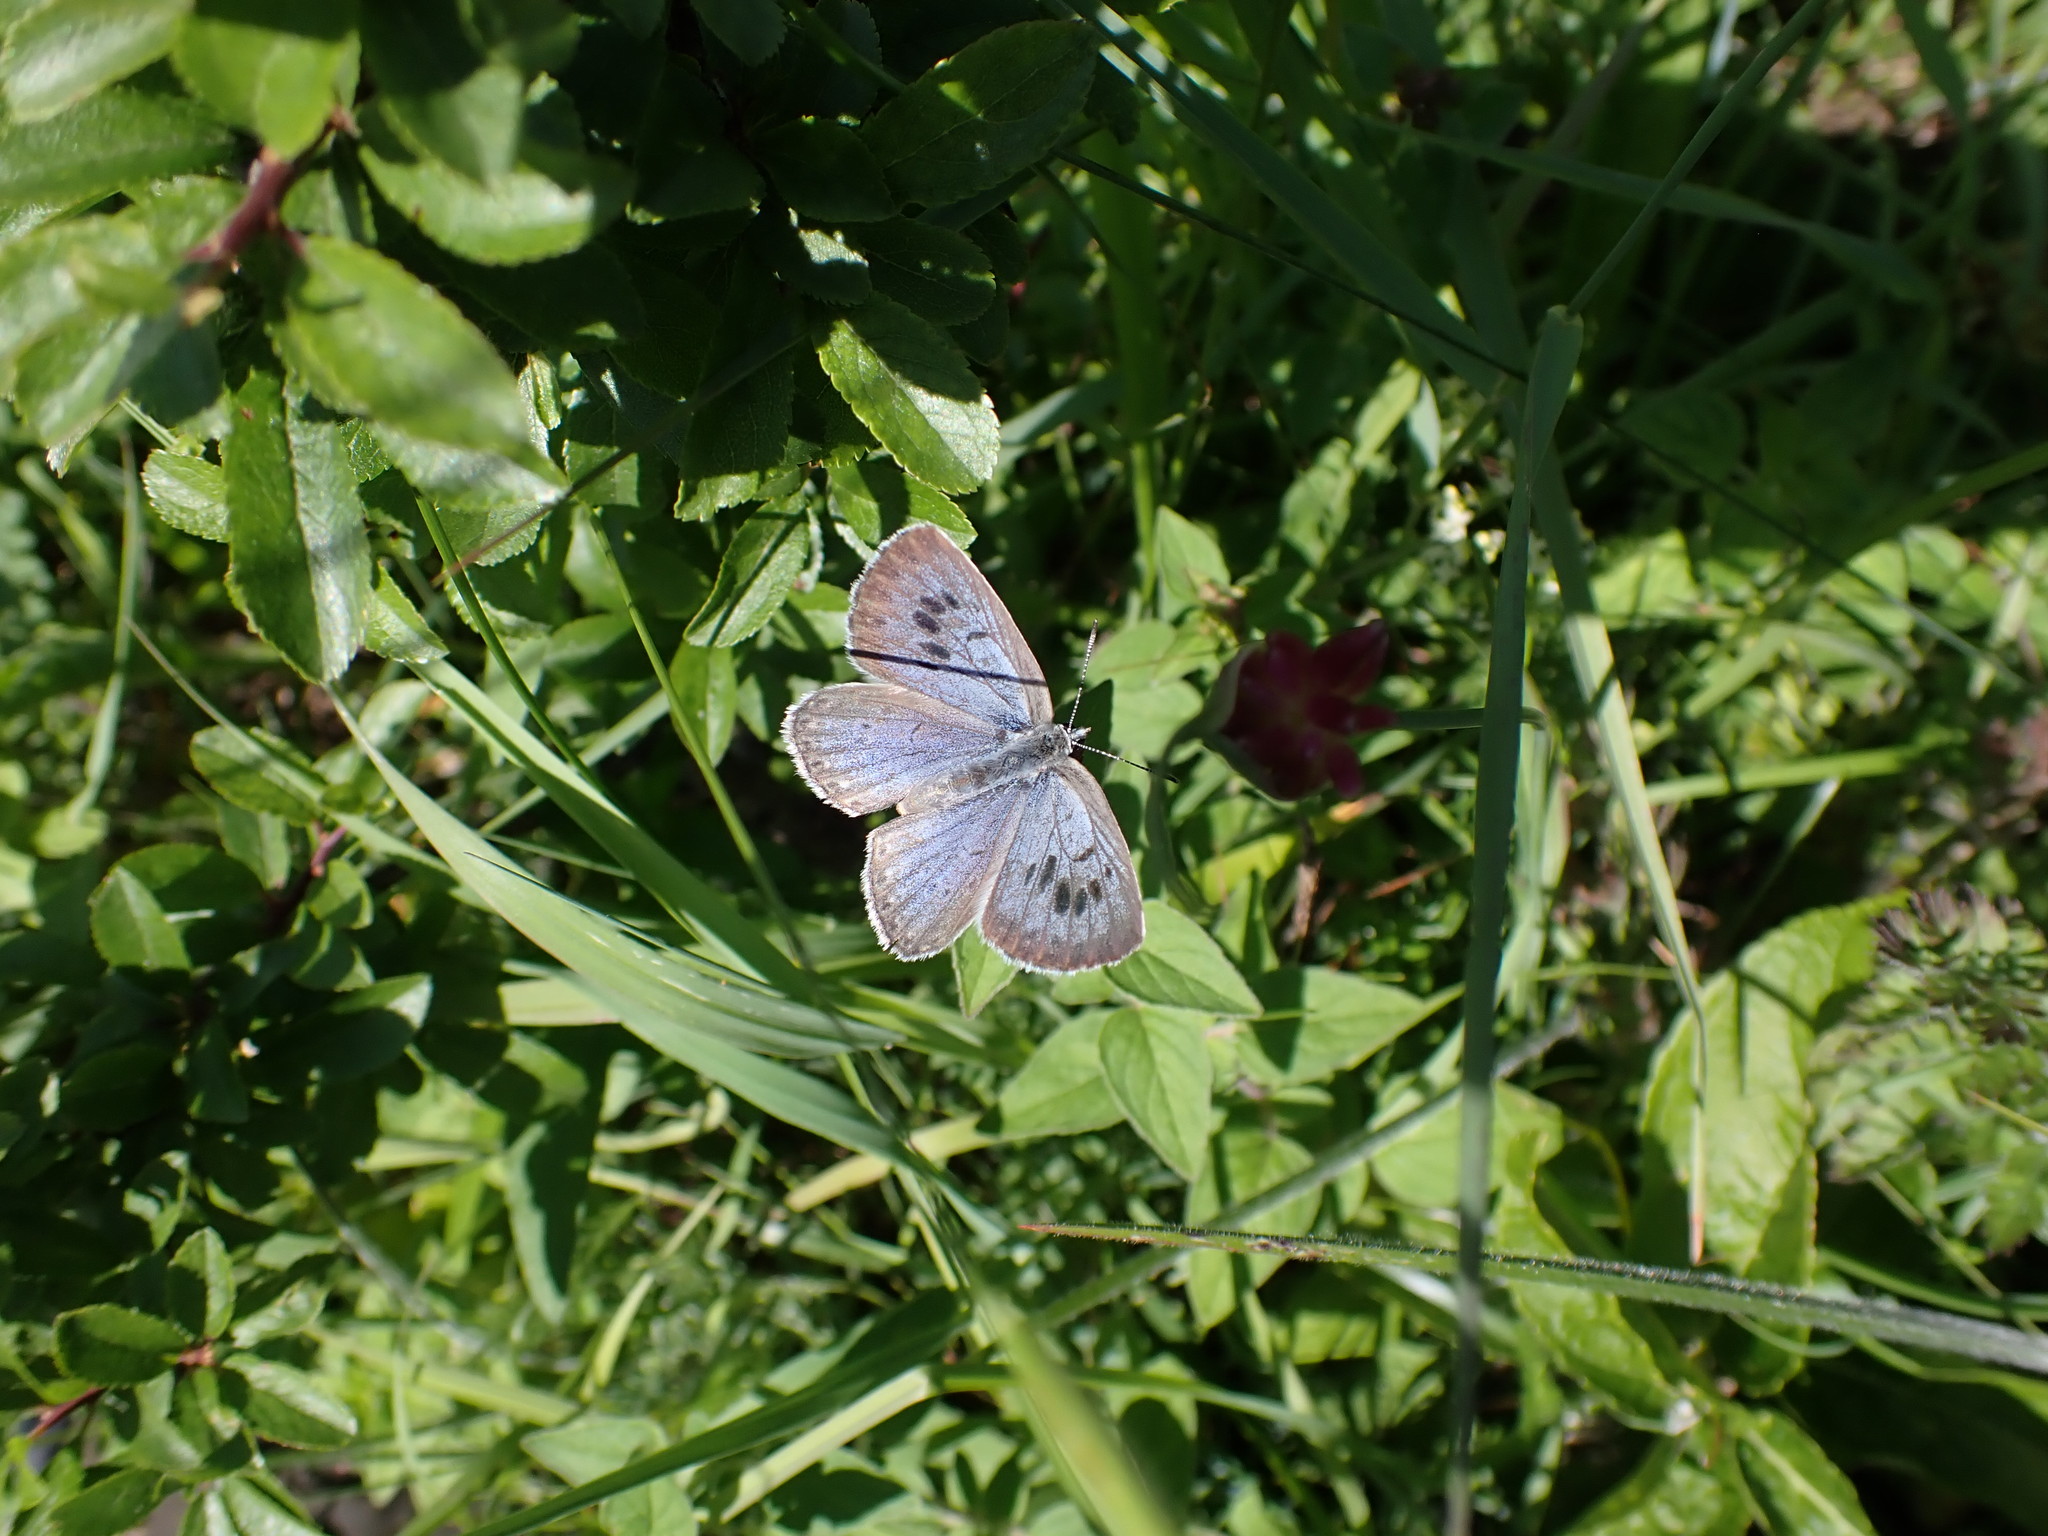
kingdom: Animalia
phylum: Arthropoda
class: Insecta
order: Lepidoptera
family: Lycaenidae
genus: Maculinea
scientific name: Maculinea arion
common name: Large blue
